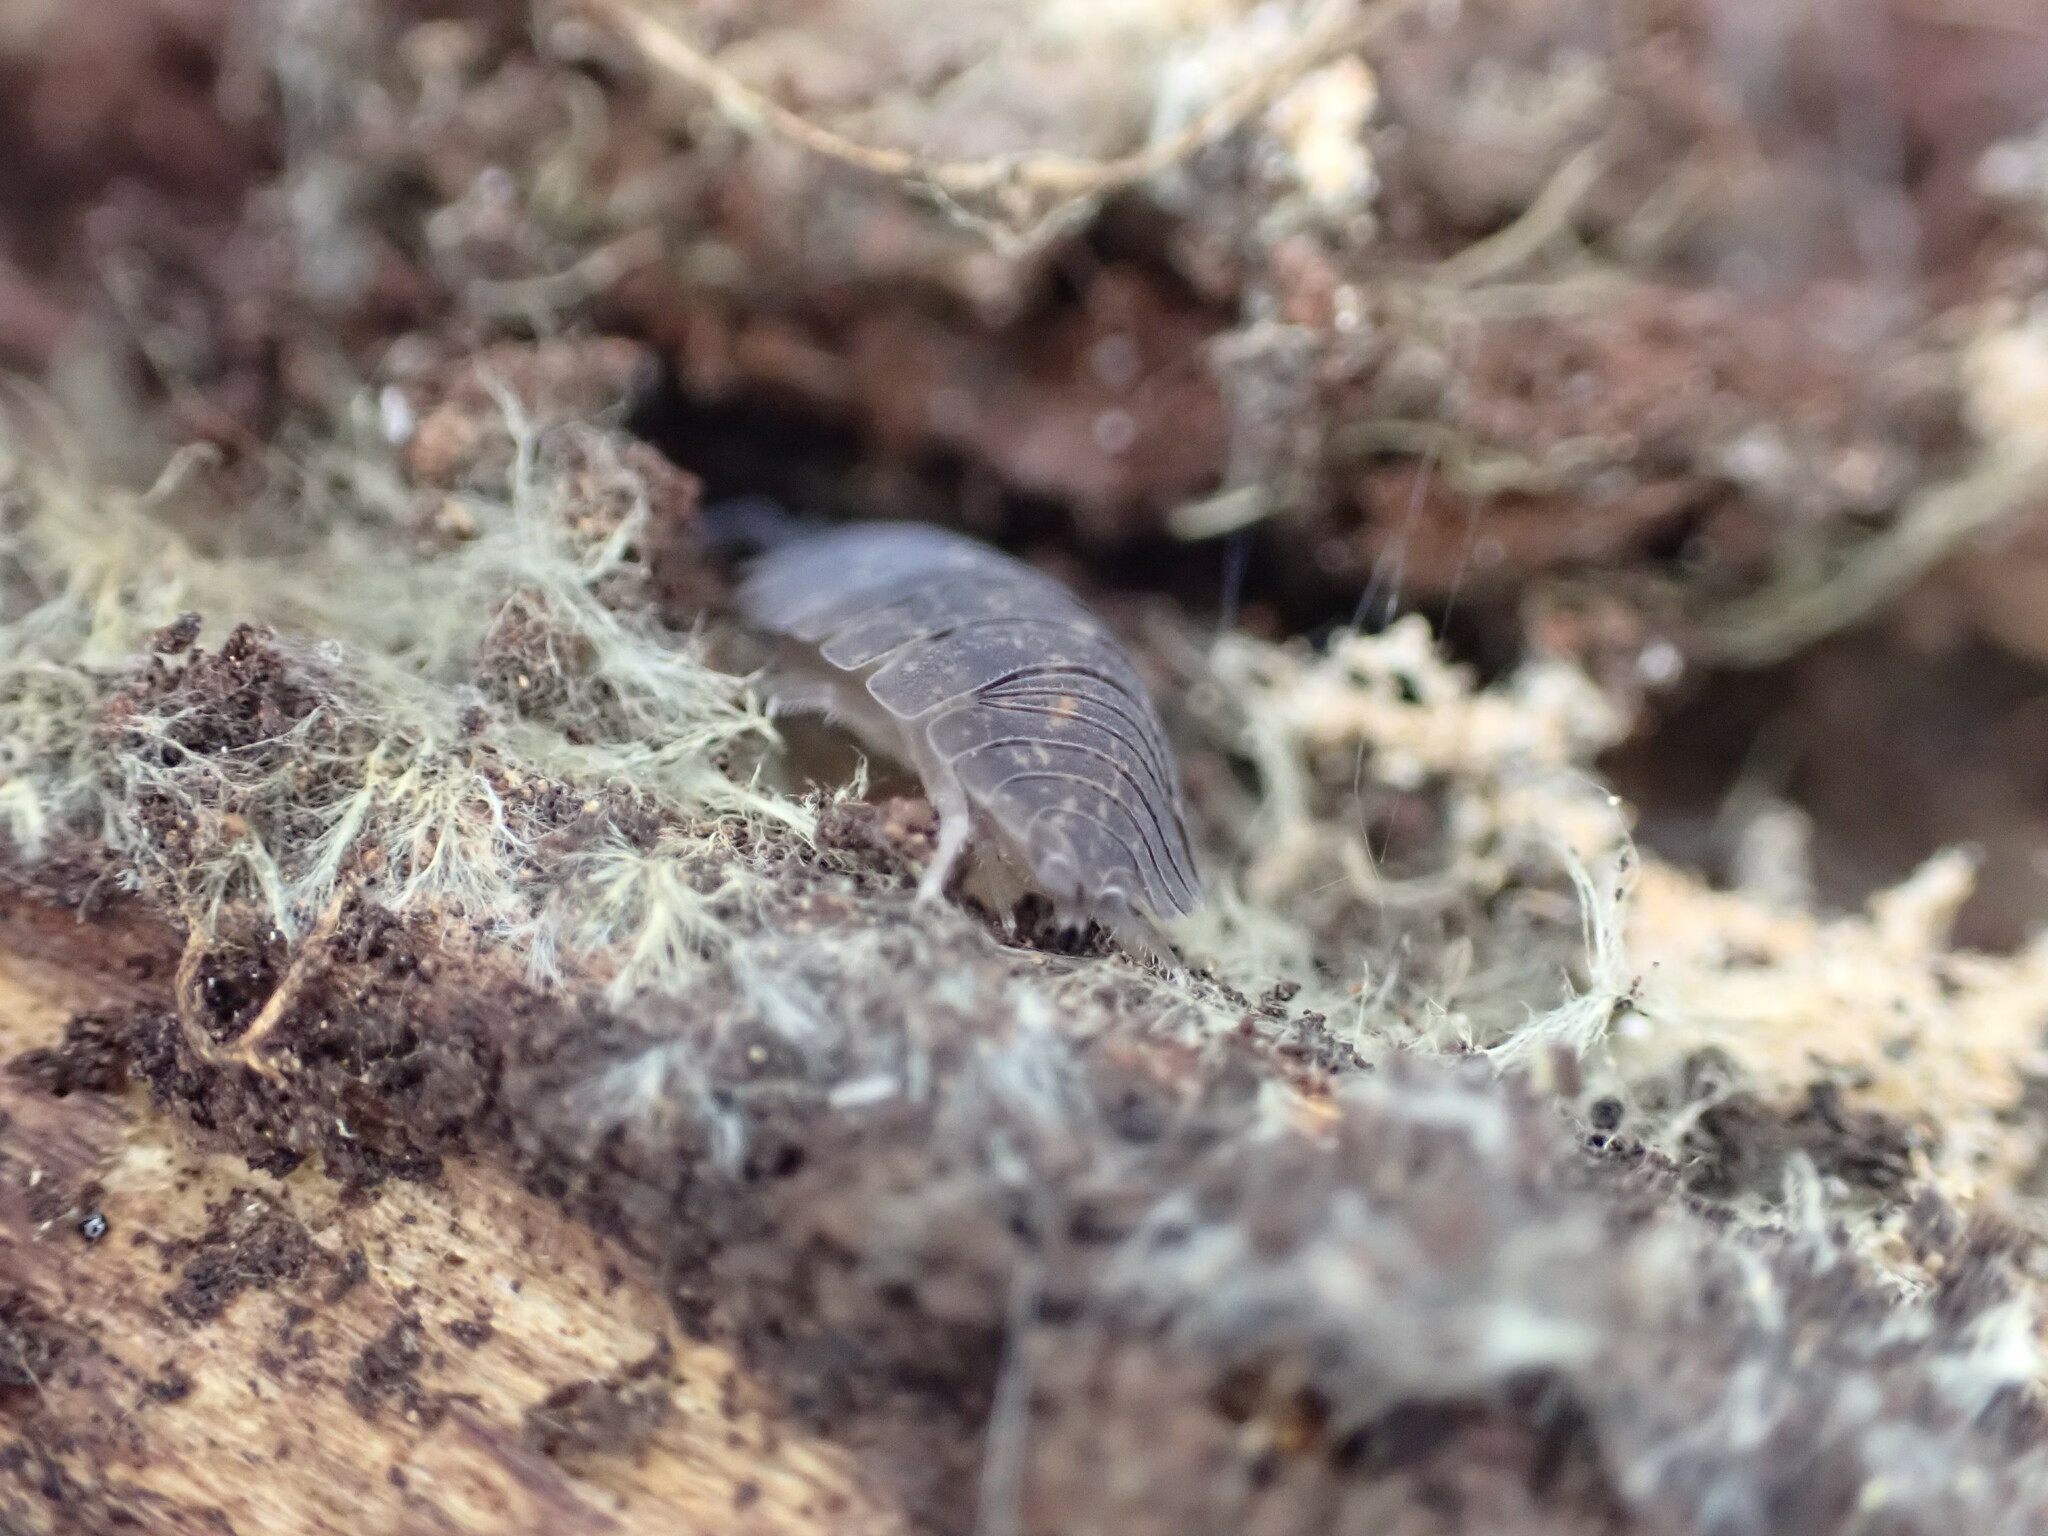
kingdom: Animalia
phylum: Arthropoda
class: Malacostraca
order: Isopoda
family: Porcellionidae
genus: Porcellio
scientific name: Porcellio scaber
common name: Common rough woodlouse
